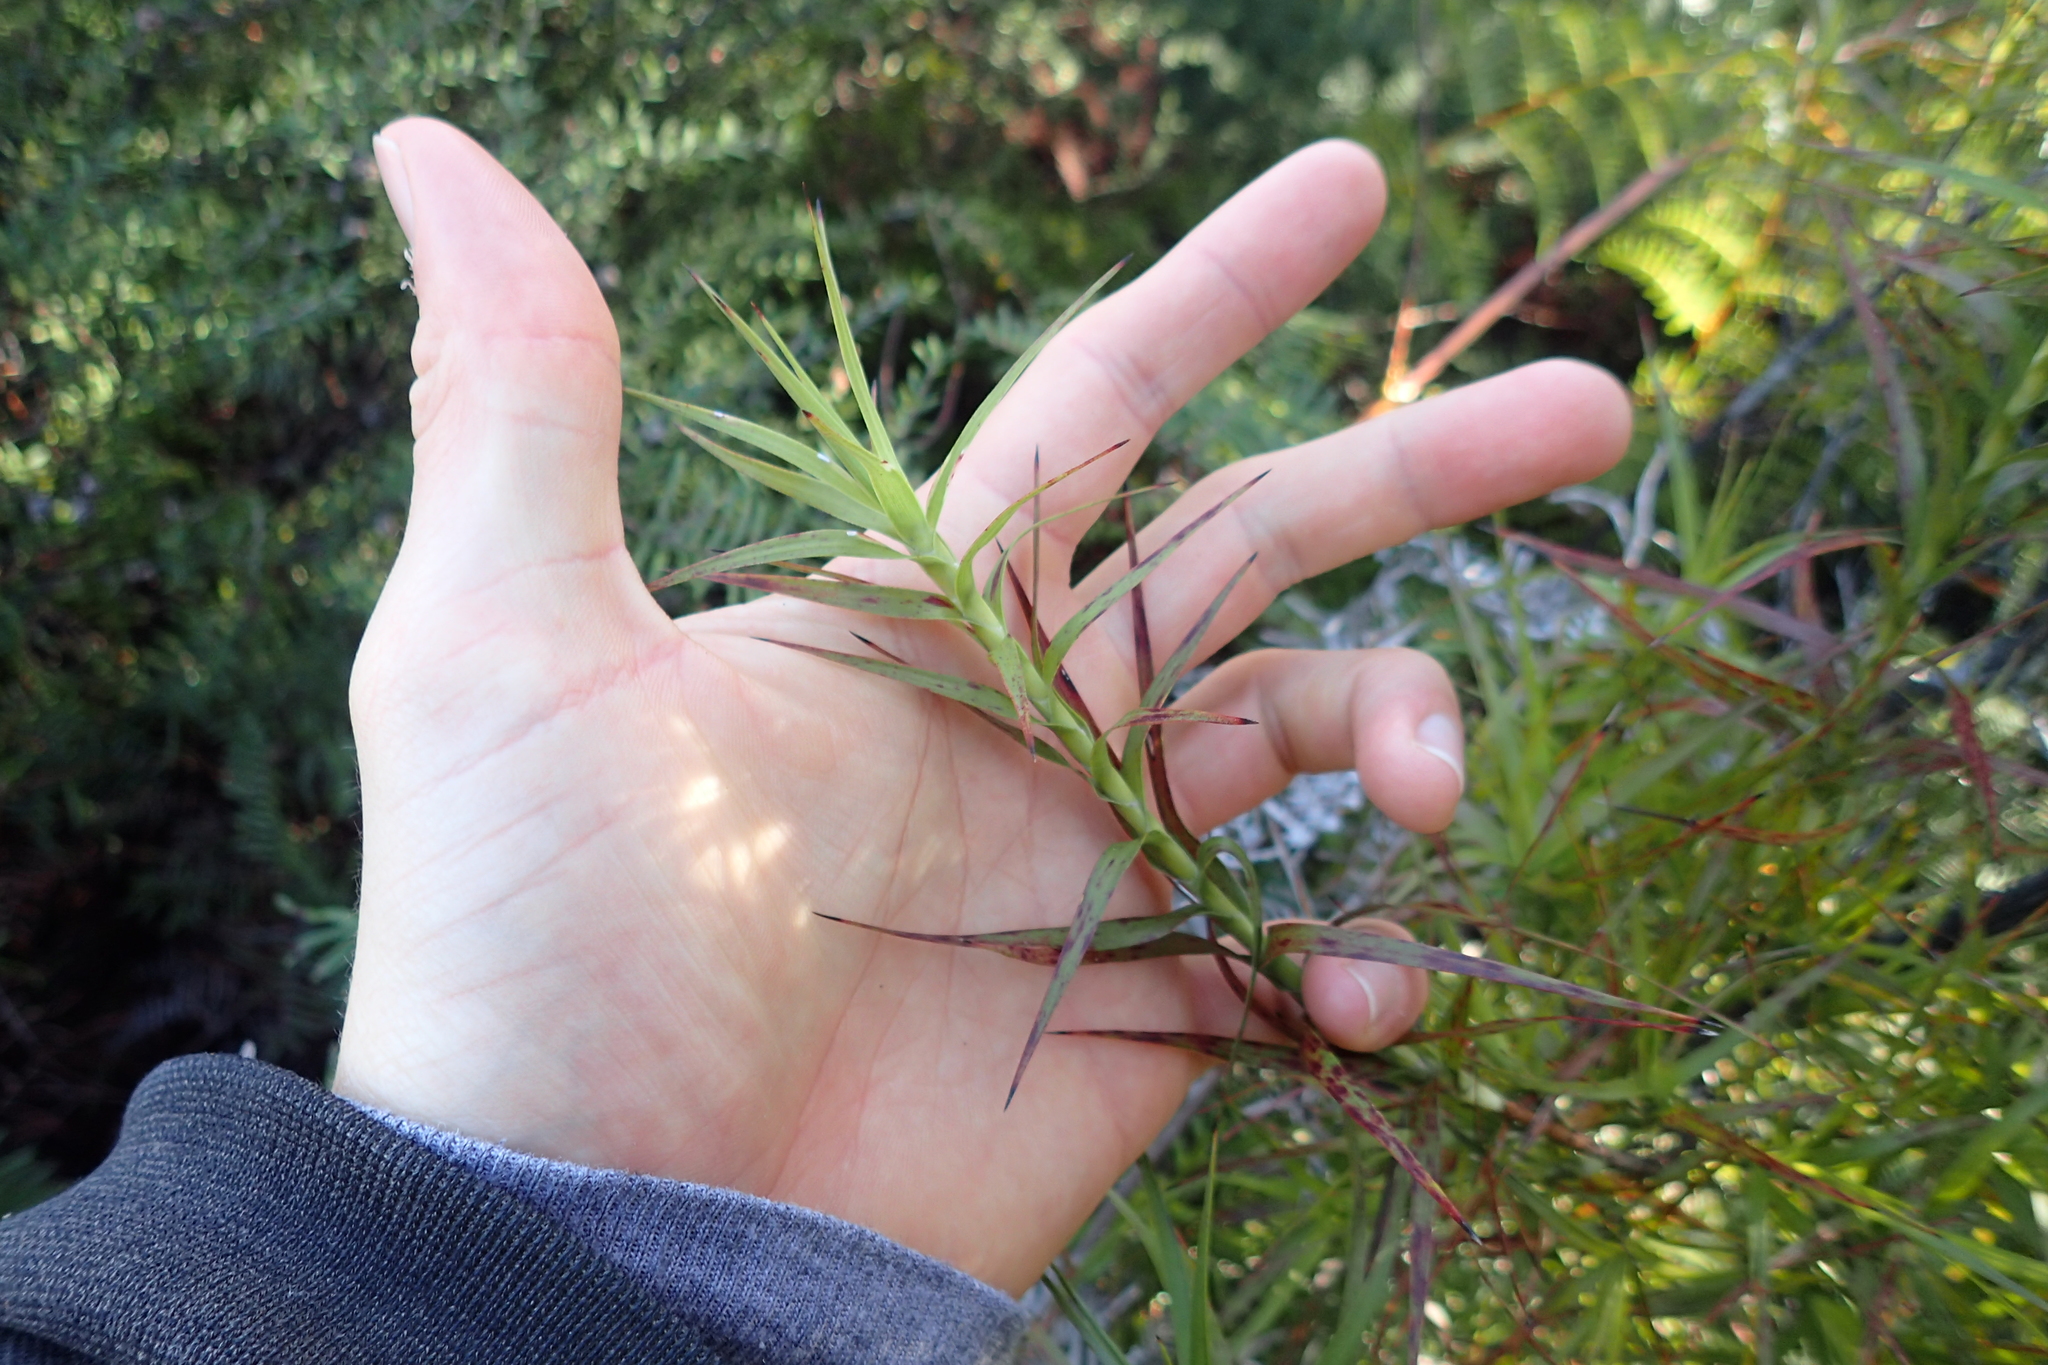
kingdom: Plantae
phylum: Tracheophyta
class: Magnoliopsida
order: Ericales
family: Ericaceae
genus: Dracophyllum
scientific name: Dracophyllum sinclairii
